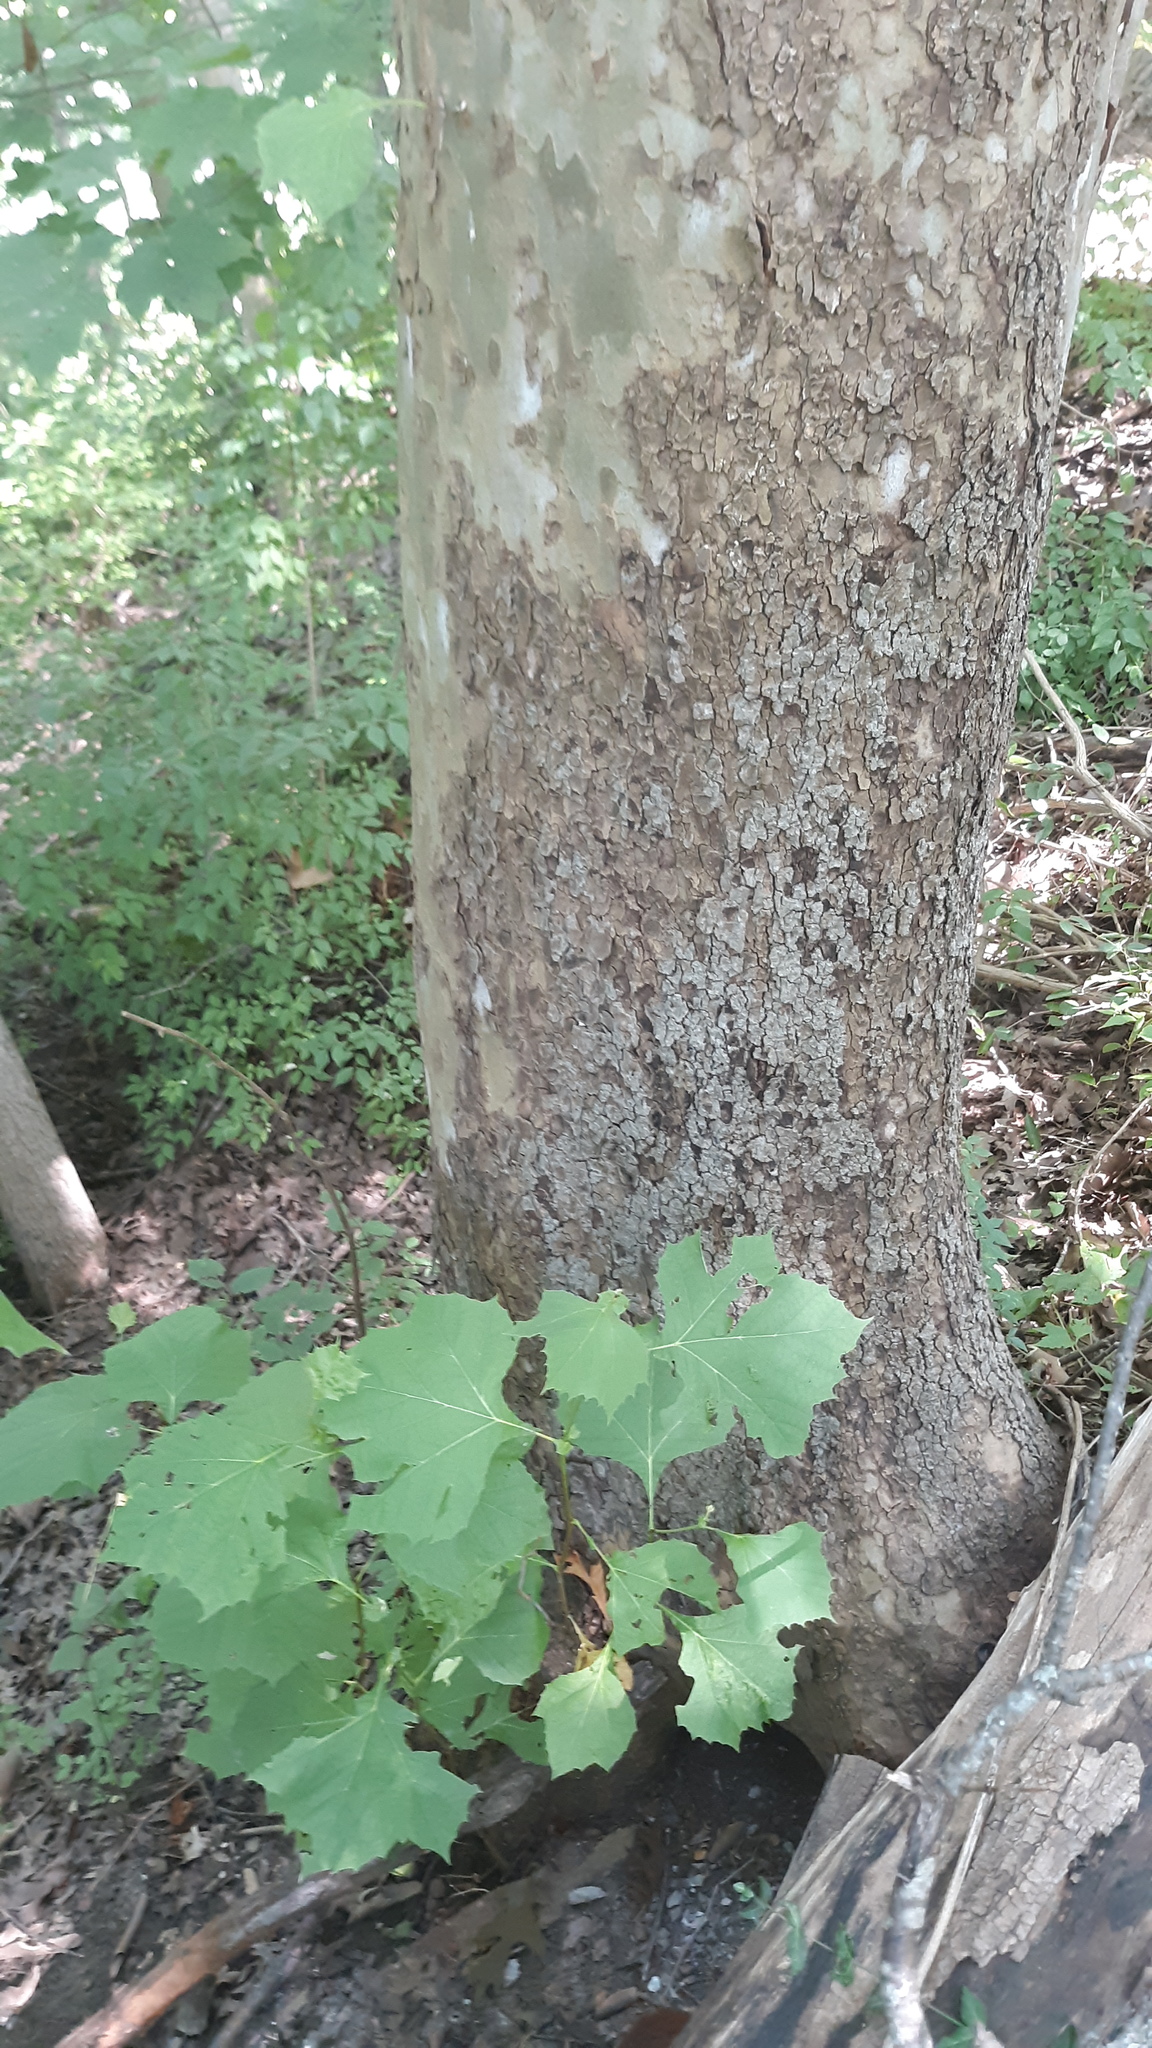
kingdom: Plantae
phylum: Tracheophyta
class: Magnoliopsida
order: Proteales
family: Platanaceae
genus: Platanus
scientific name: Platanus occidentalis
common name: American sycamore
